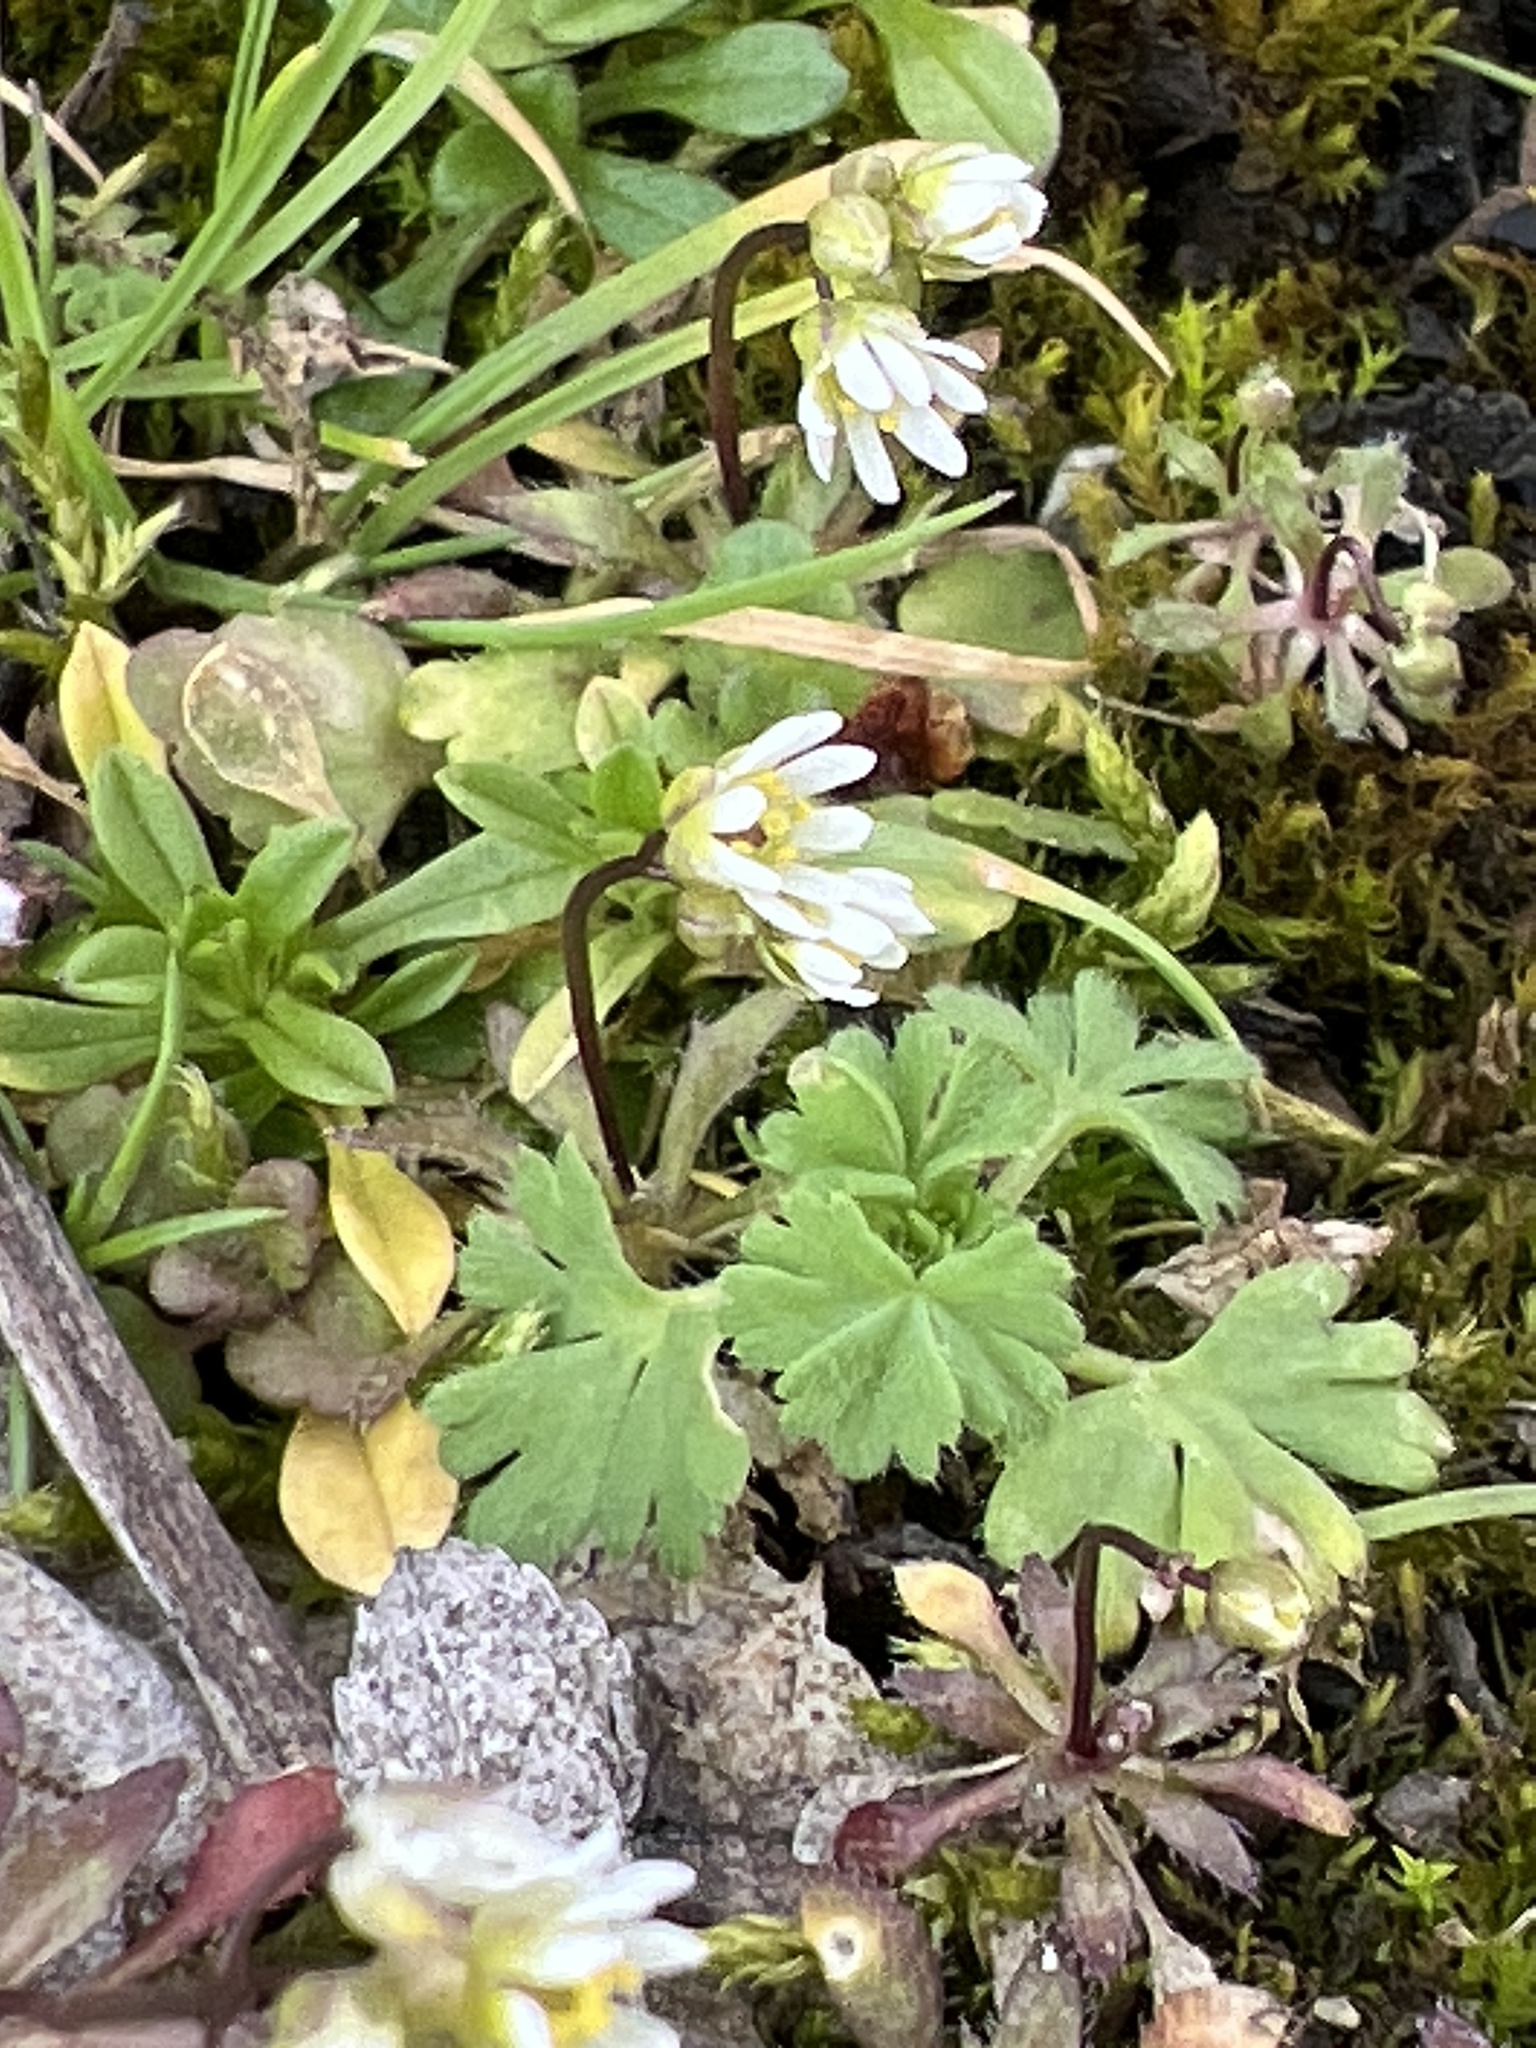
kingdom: Plantae
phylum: Tracheophyta
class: Magnoliopsida
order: Brassicales
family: Brassicaceae
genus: Draba
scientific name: Draba verna
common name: Spring draba
